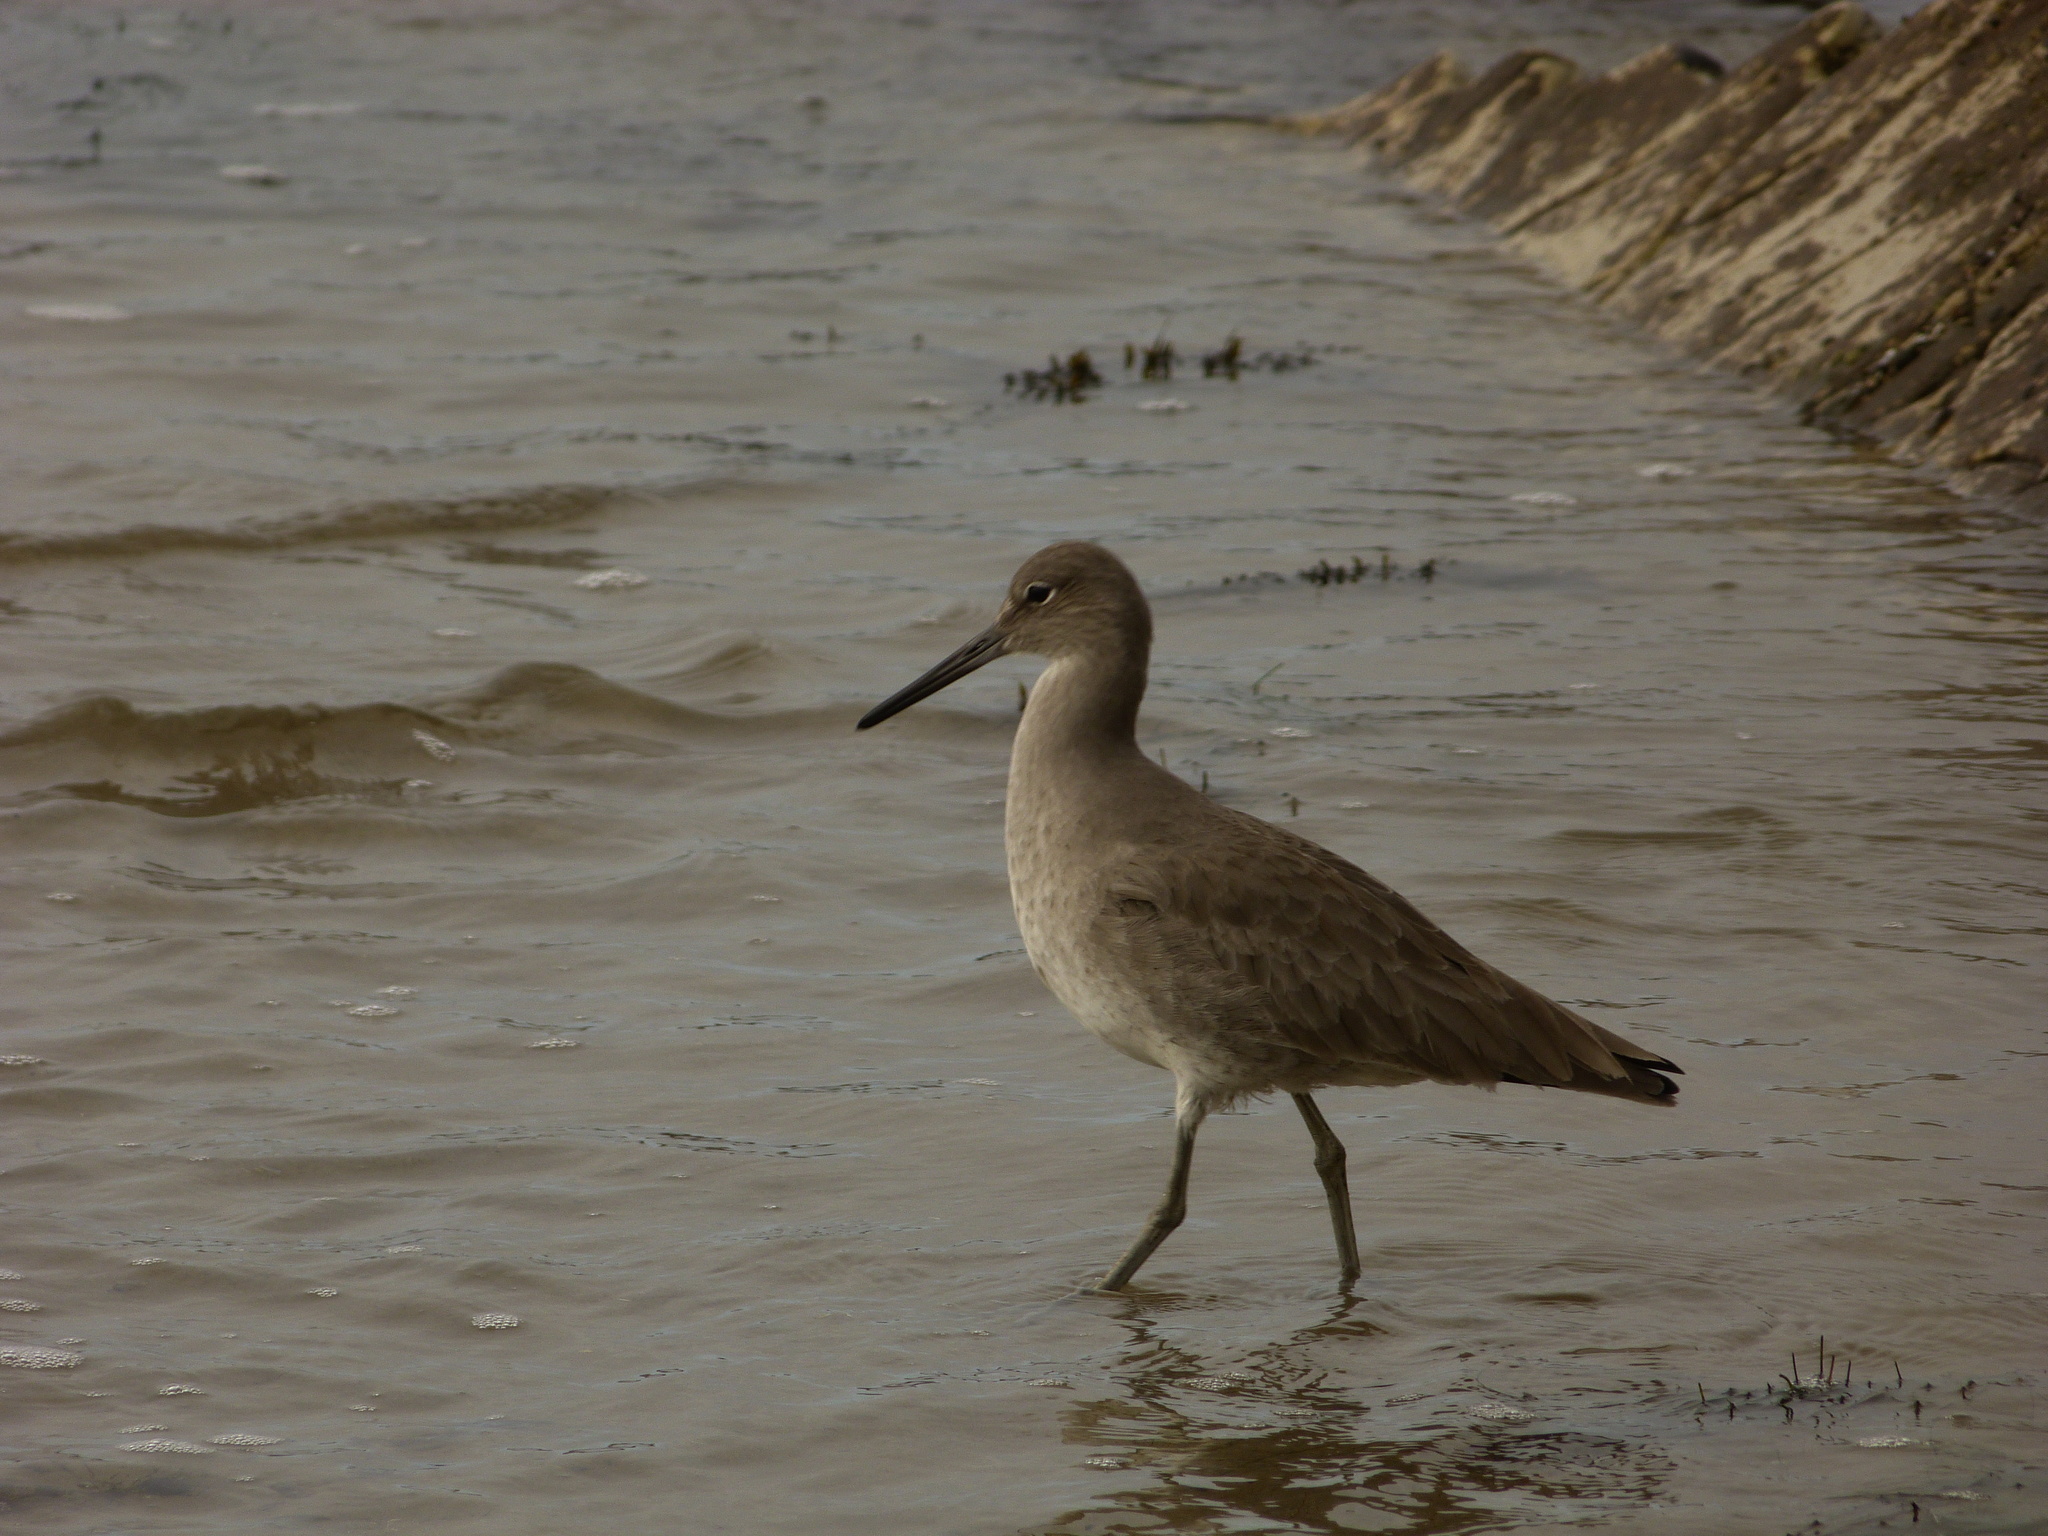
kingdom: Animalia
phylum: Chordata
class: Aves
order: Charadriiformes
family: Scolopacidae
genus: Tringa
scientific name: Tringa semipalmata
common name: Willet
